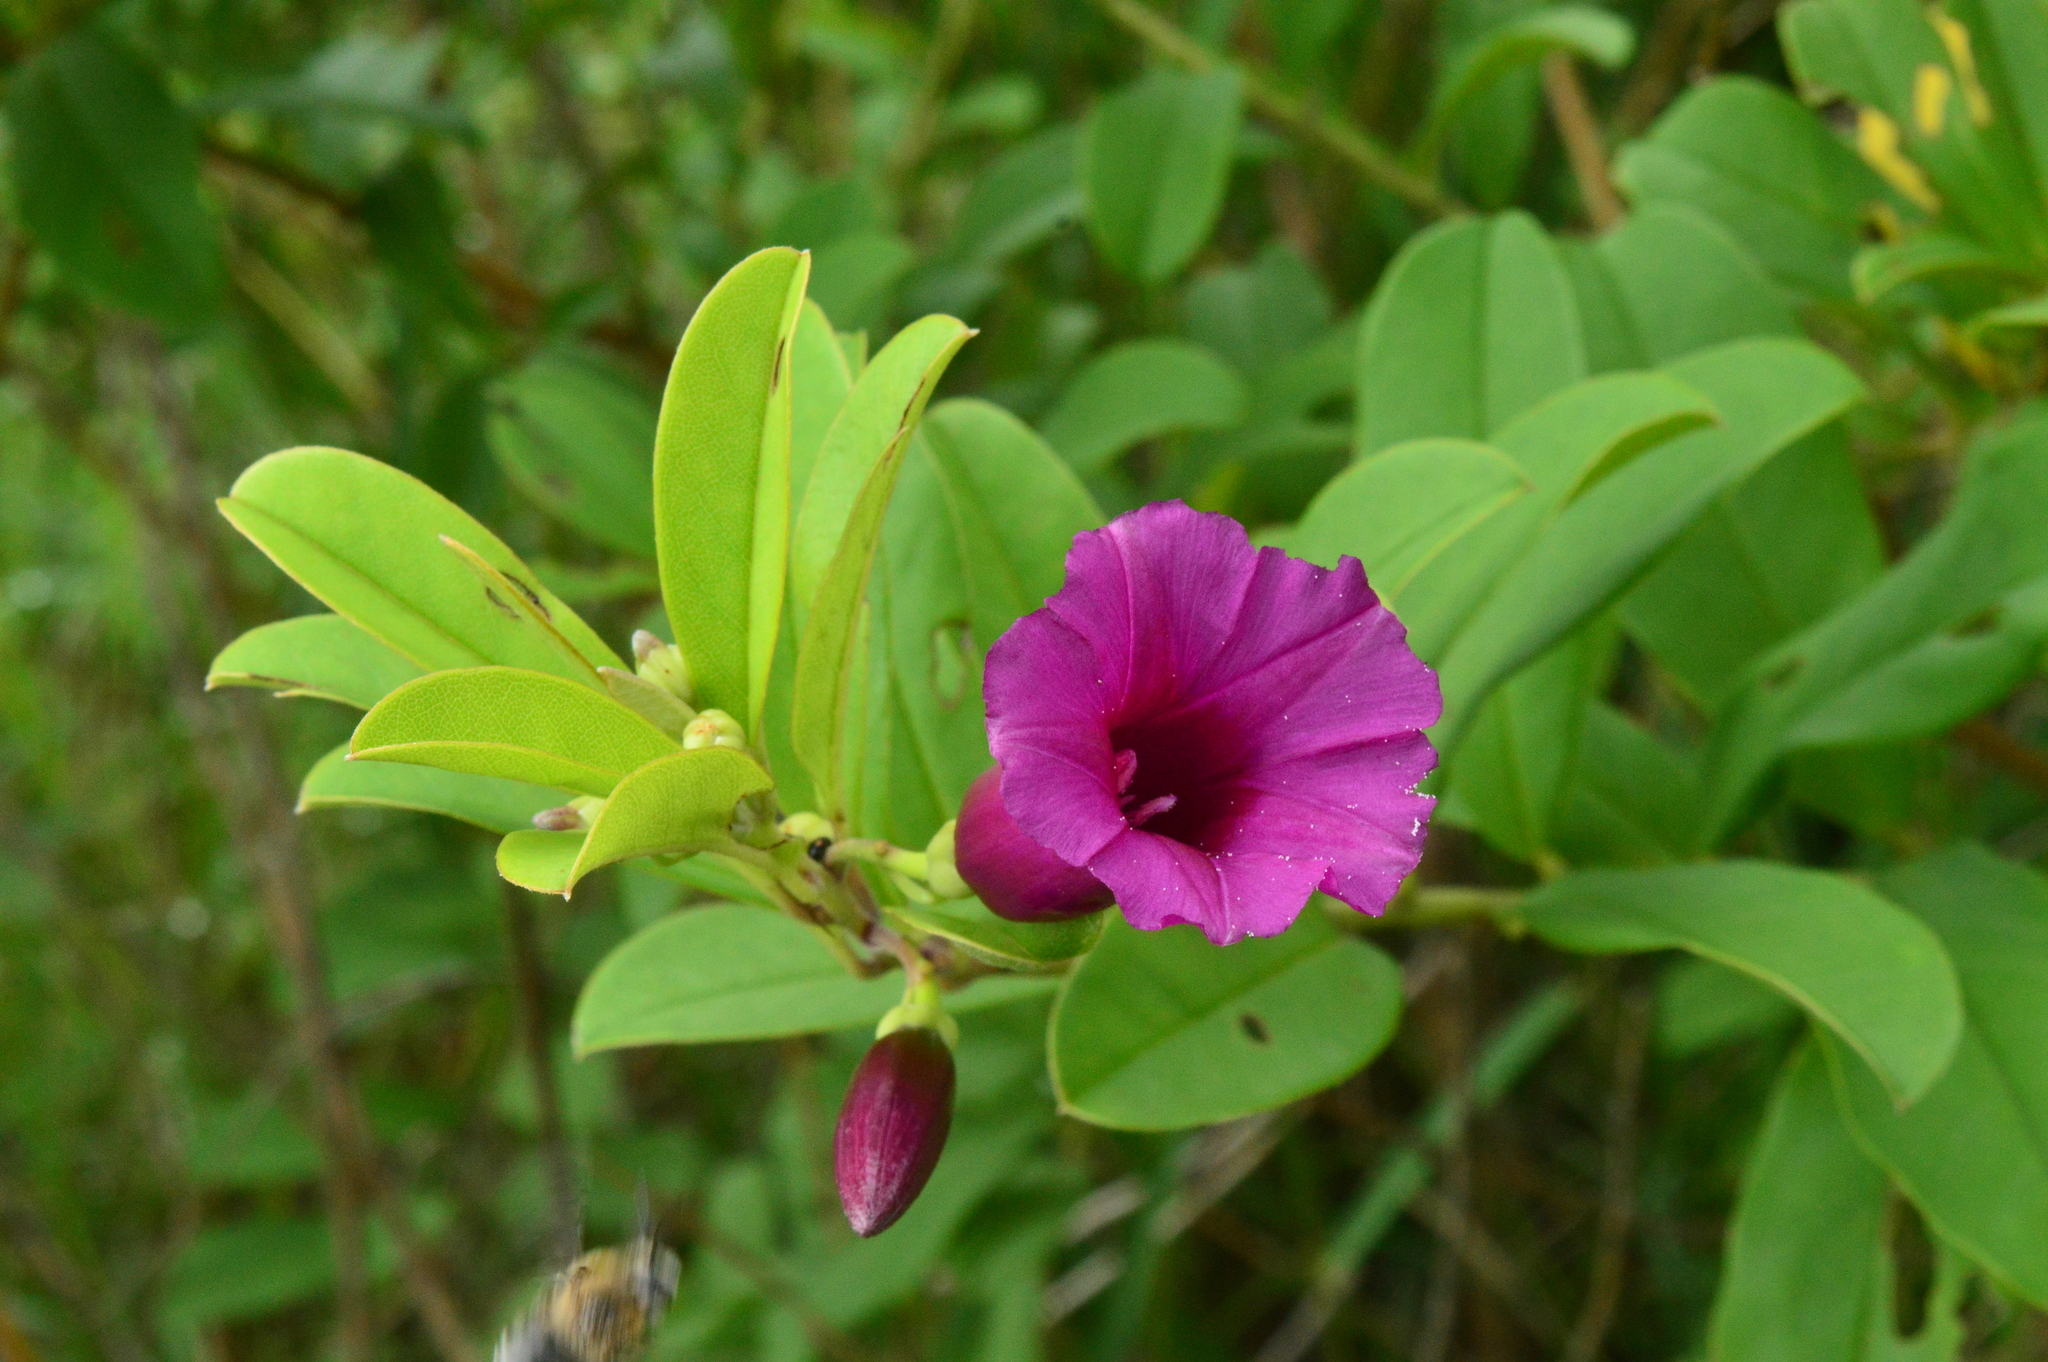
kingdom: Plantae
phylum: Tracheophyta
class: Magnoliopsida
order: Solanales
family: Convolvulaceae
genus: Argyreia
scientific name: Argyreia cuneata
